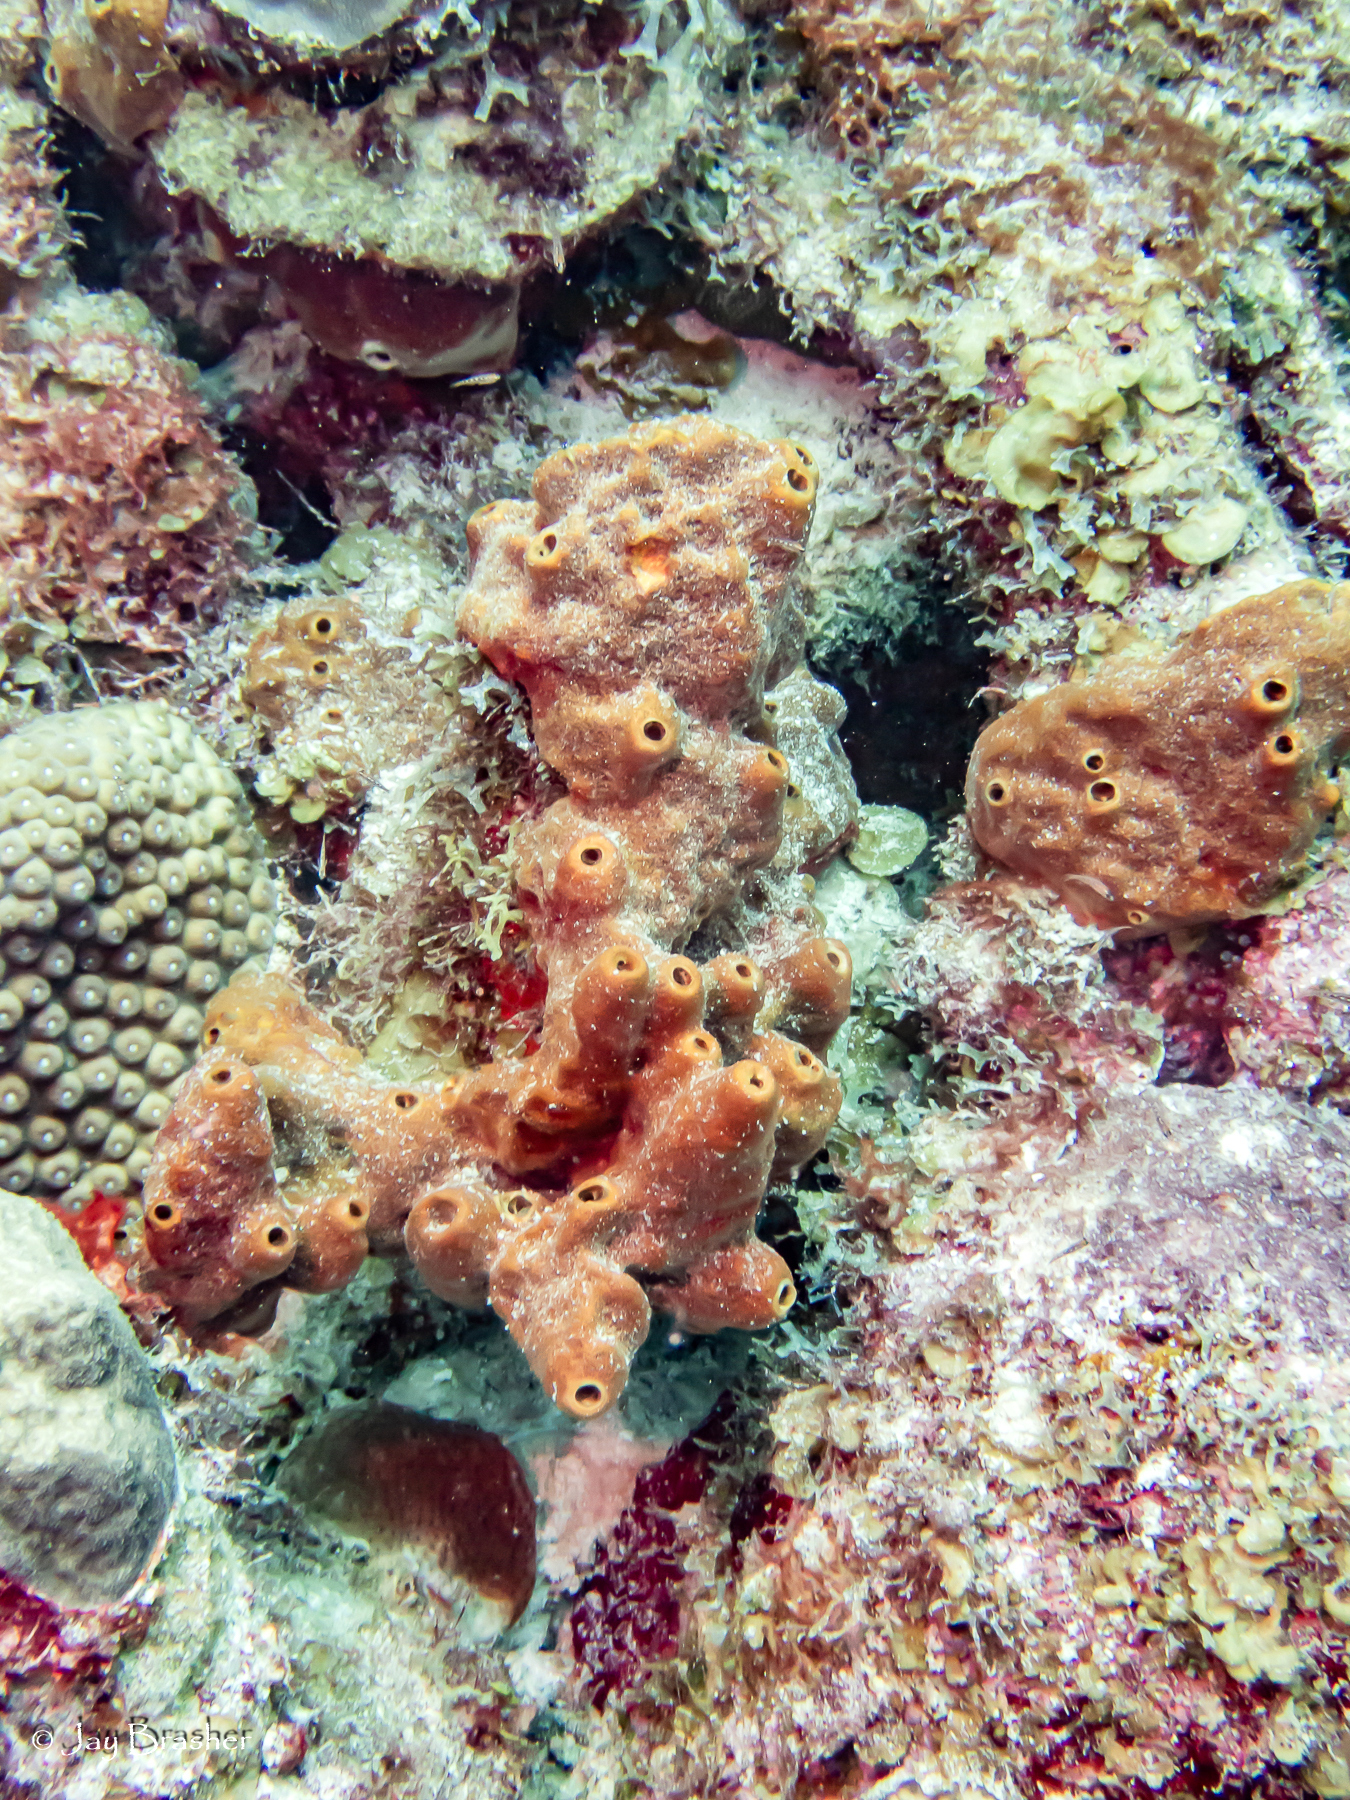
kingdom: Animalia
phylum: Porifera
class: Demospongiae
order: Axinellida
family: Raspailiidae
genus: Ectyoplasia
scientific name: Ectyoplasia ferox
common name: Brown encrusting octopus sponge
